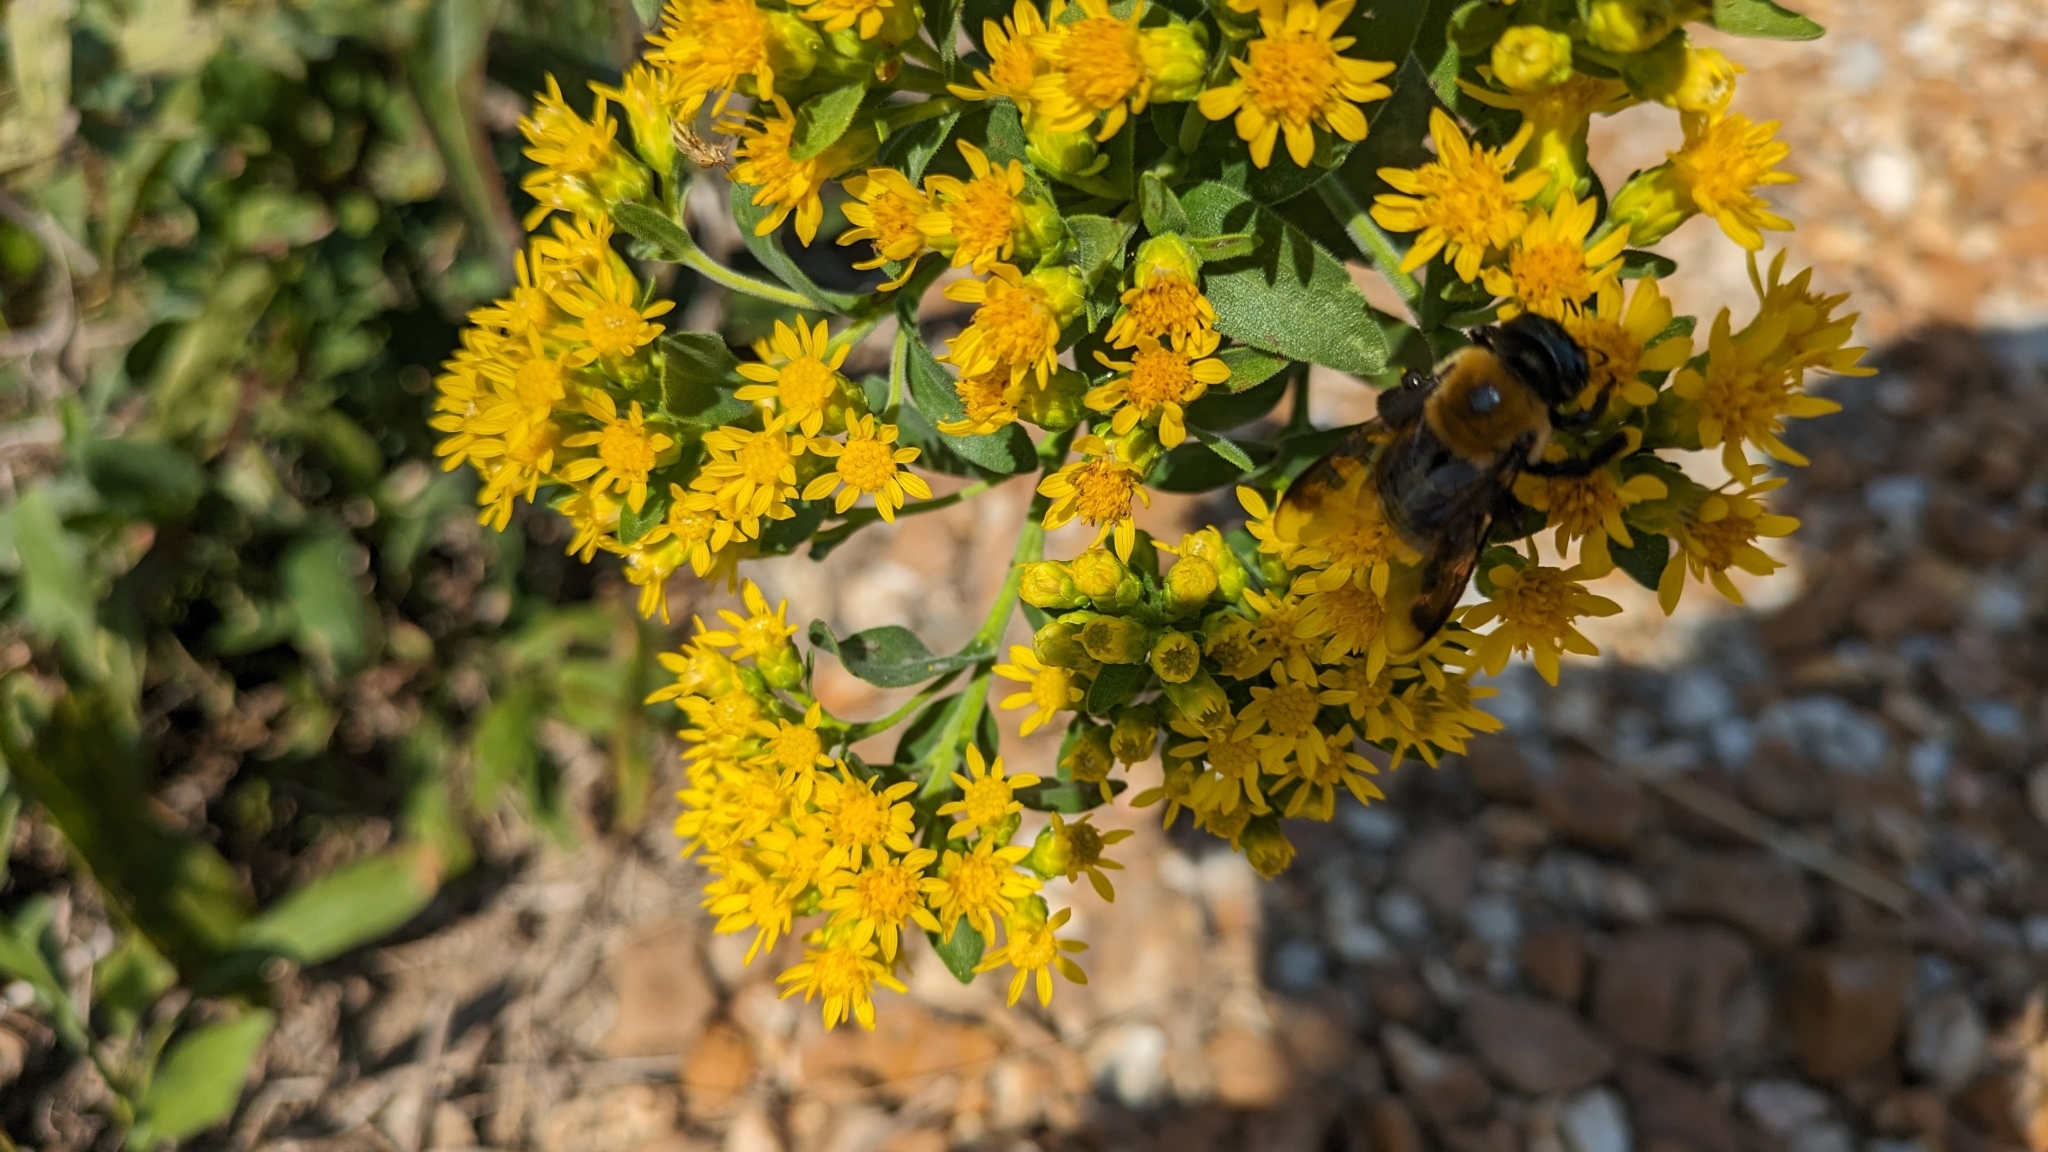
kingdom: Animalia
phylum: Arthropoda
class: Insecta
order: Hymenoptera
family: Apidae
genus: Xylocopa
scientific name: Xylocopa virginica
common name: Carpenter bee
